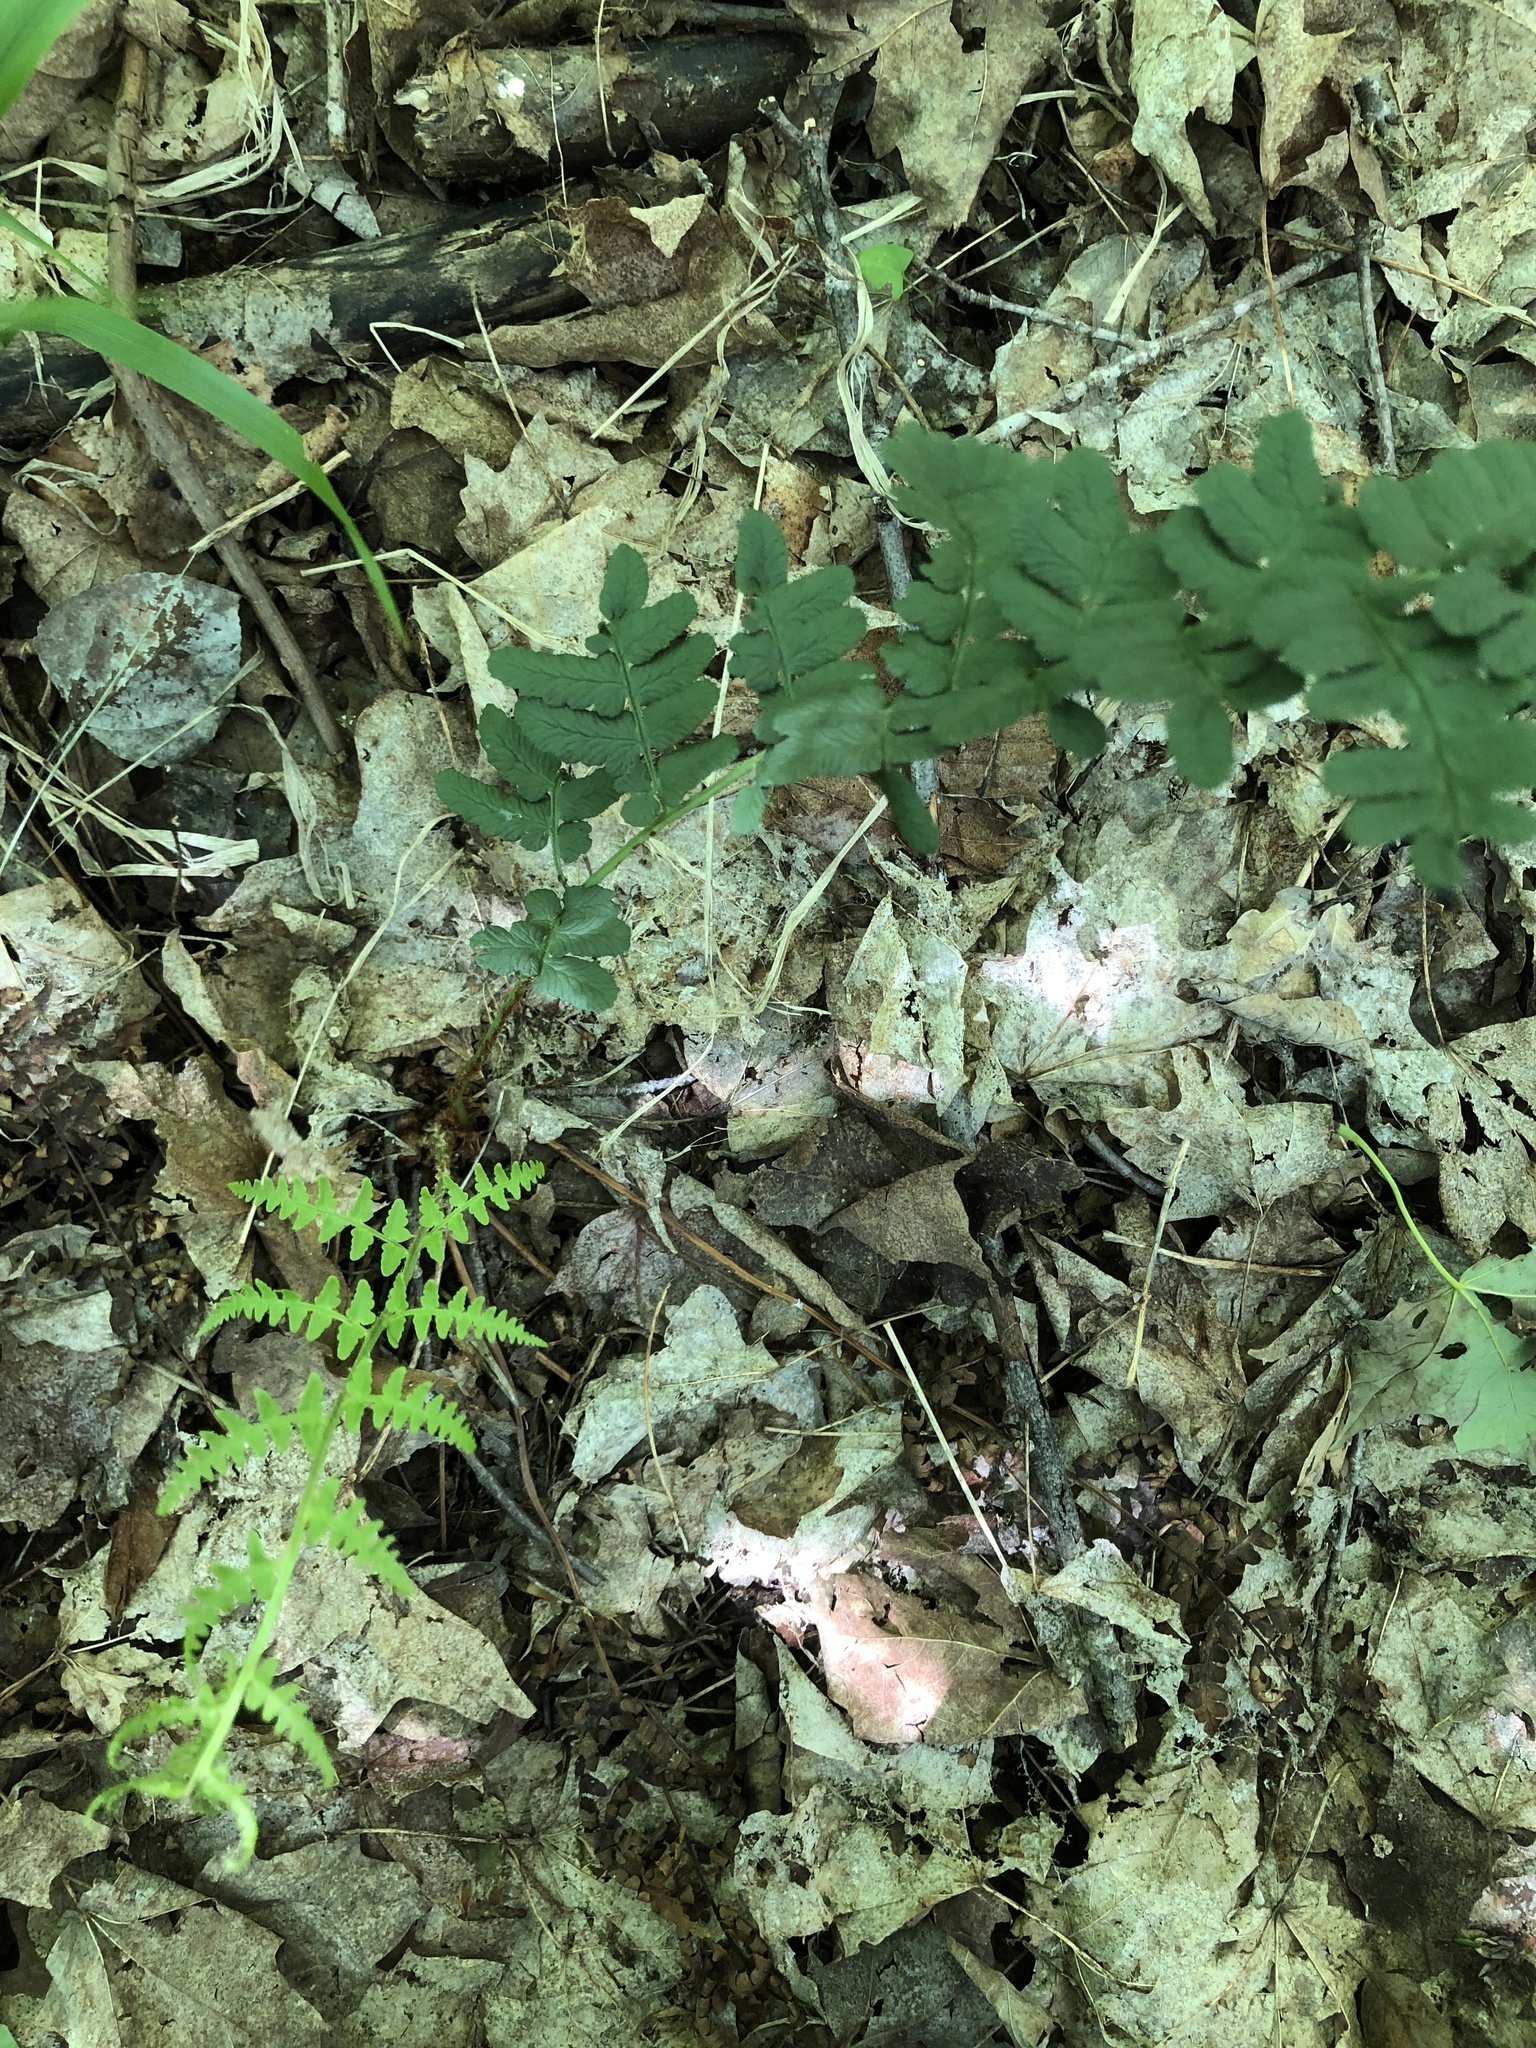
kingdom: Plantae
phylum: Tracheophyta
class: Polypodiopsida
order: Polypodiales
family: Dryopteridaceae
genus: Dryopteris
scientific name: Dryopteris marginalis
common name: Marginal wood fern
